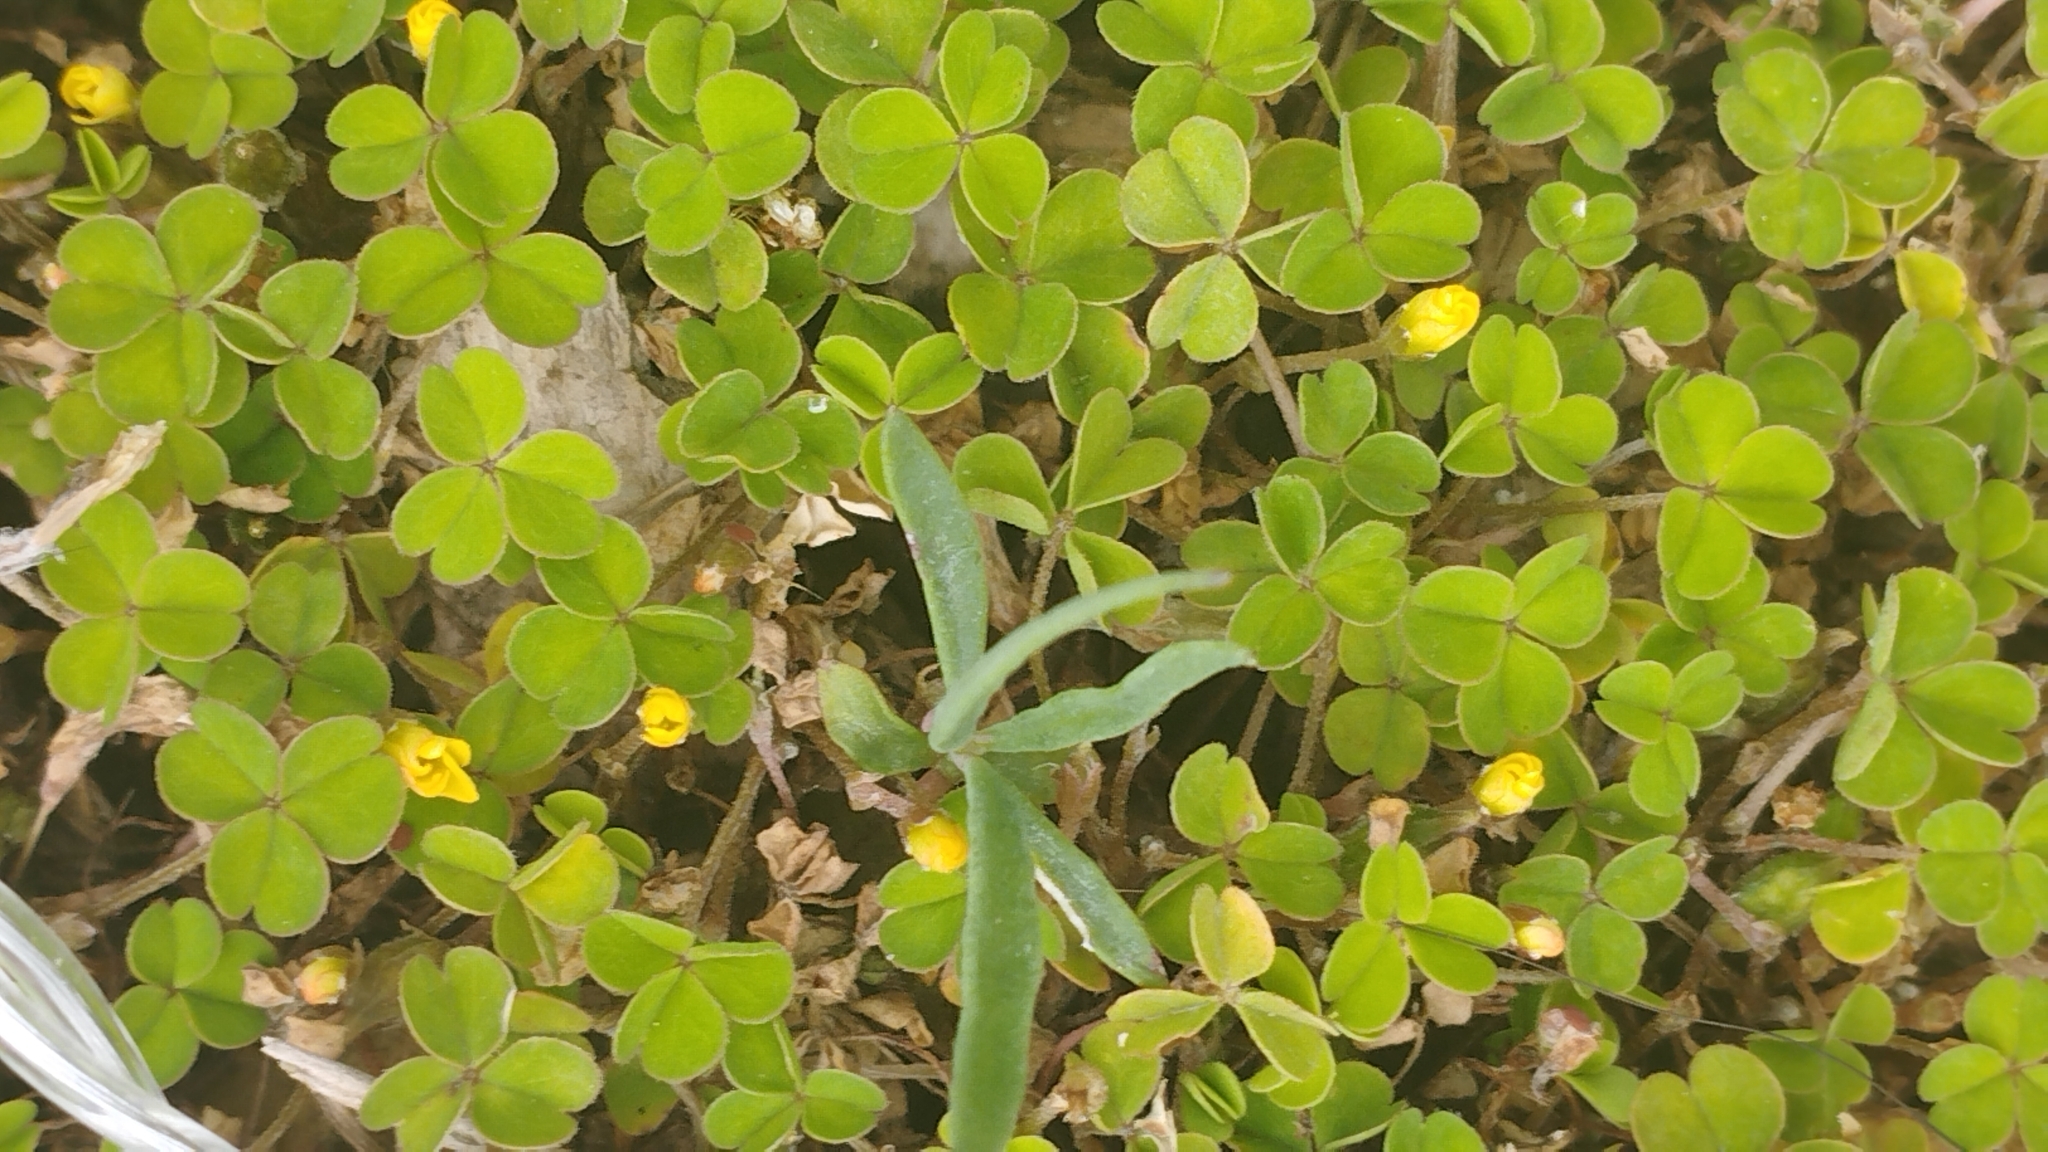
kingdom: Plantae
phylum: Tracheophyta
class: Magnoliopsida
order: Oxalidales
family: Oxalidaceae
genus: Oxalis
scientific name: Oxalis exilis
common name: Least yellow-sorrel
